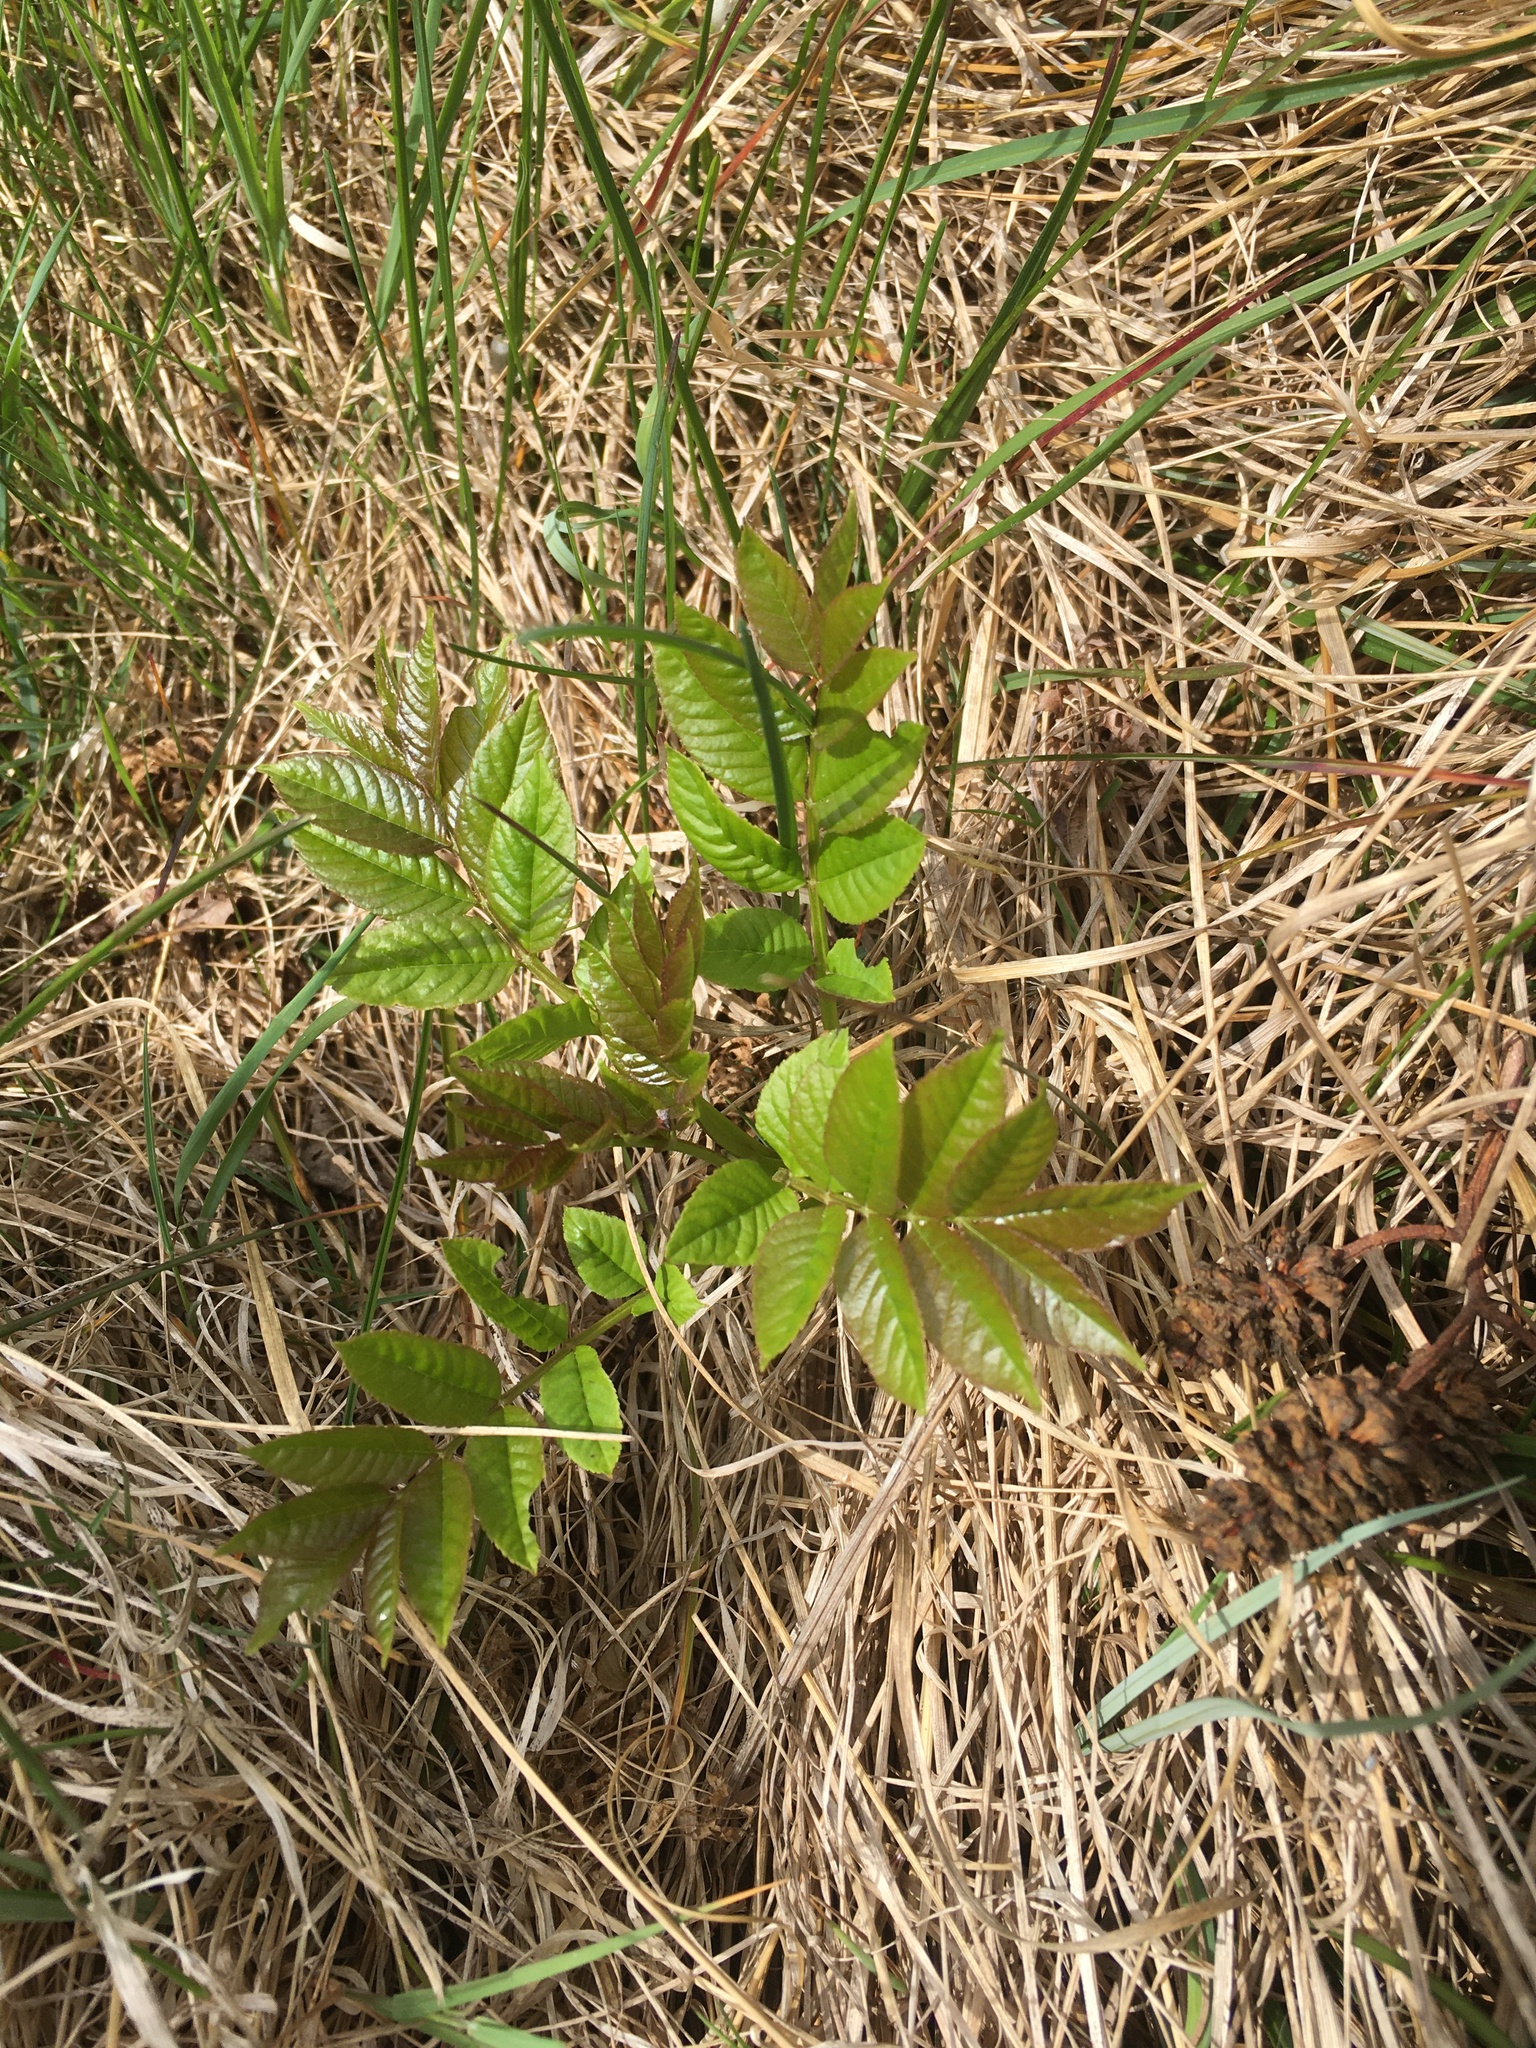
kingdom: Plantae
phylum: Tracheophyta
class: Magnoliopsida
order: Lamiales
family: Oleaceae
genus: Fraxinus
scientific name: Fraxinus excelsior
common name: European ash
